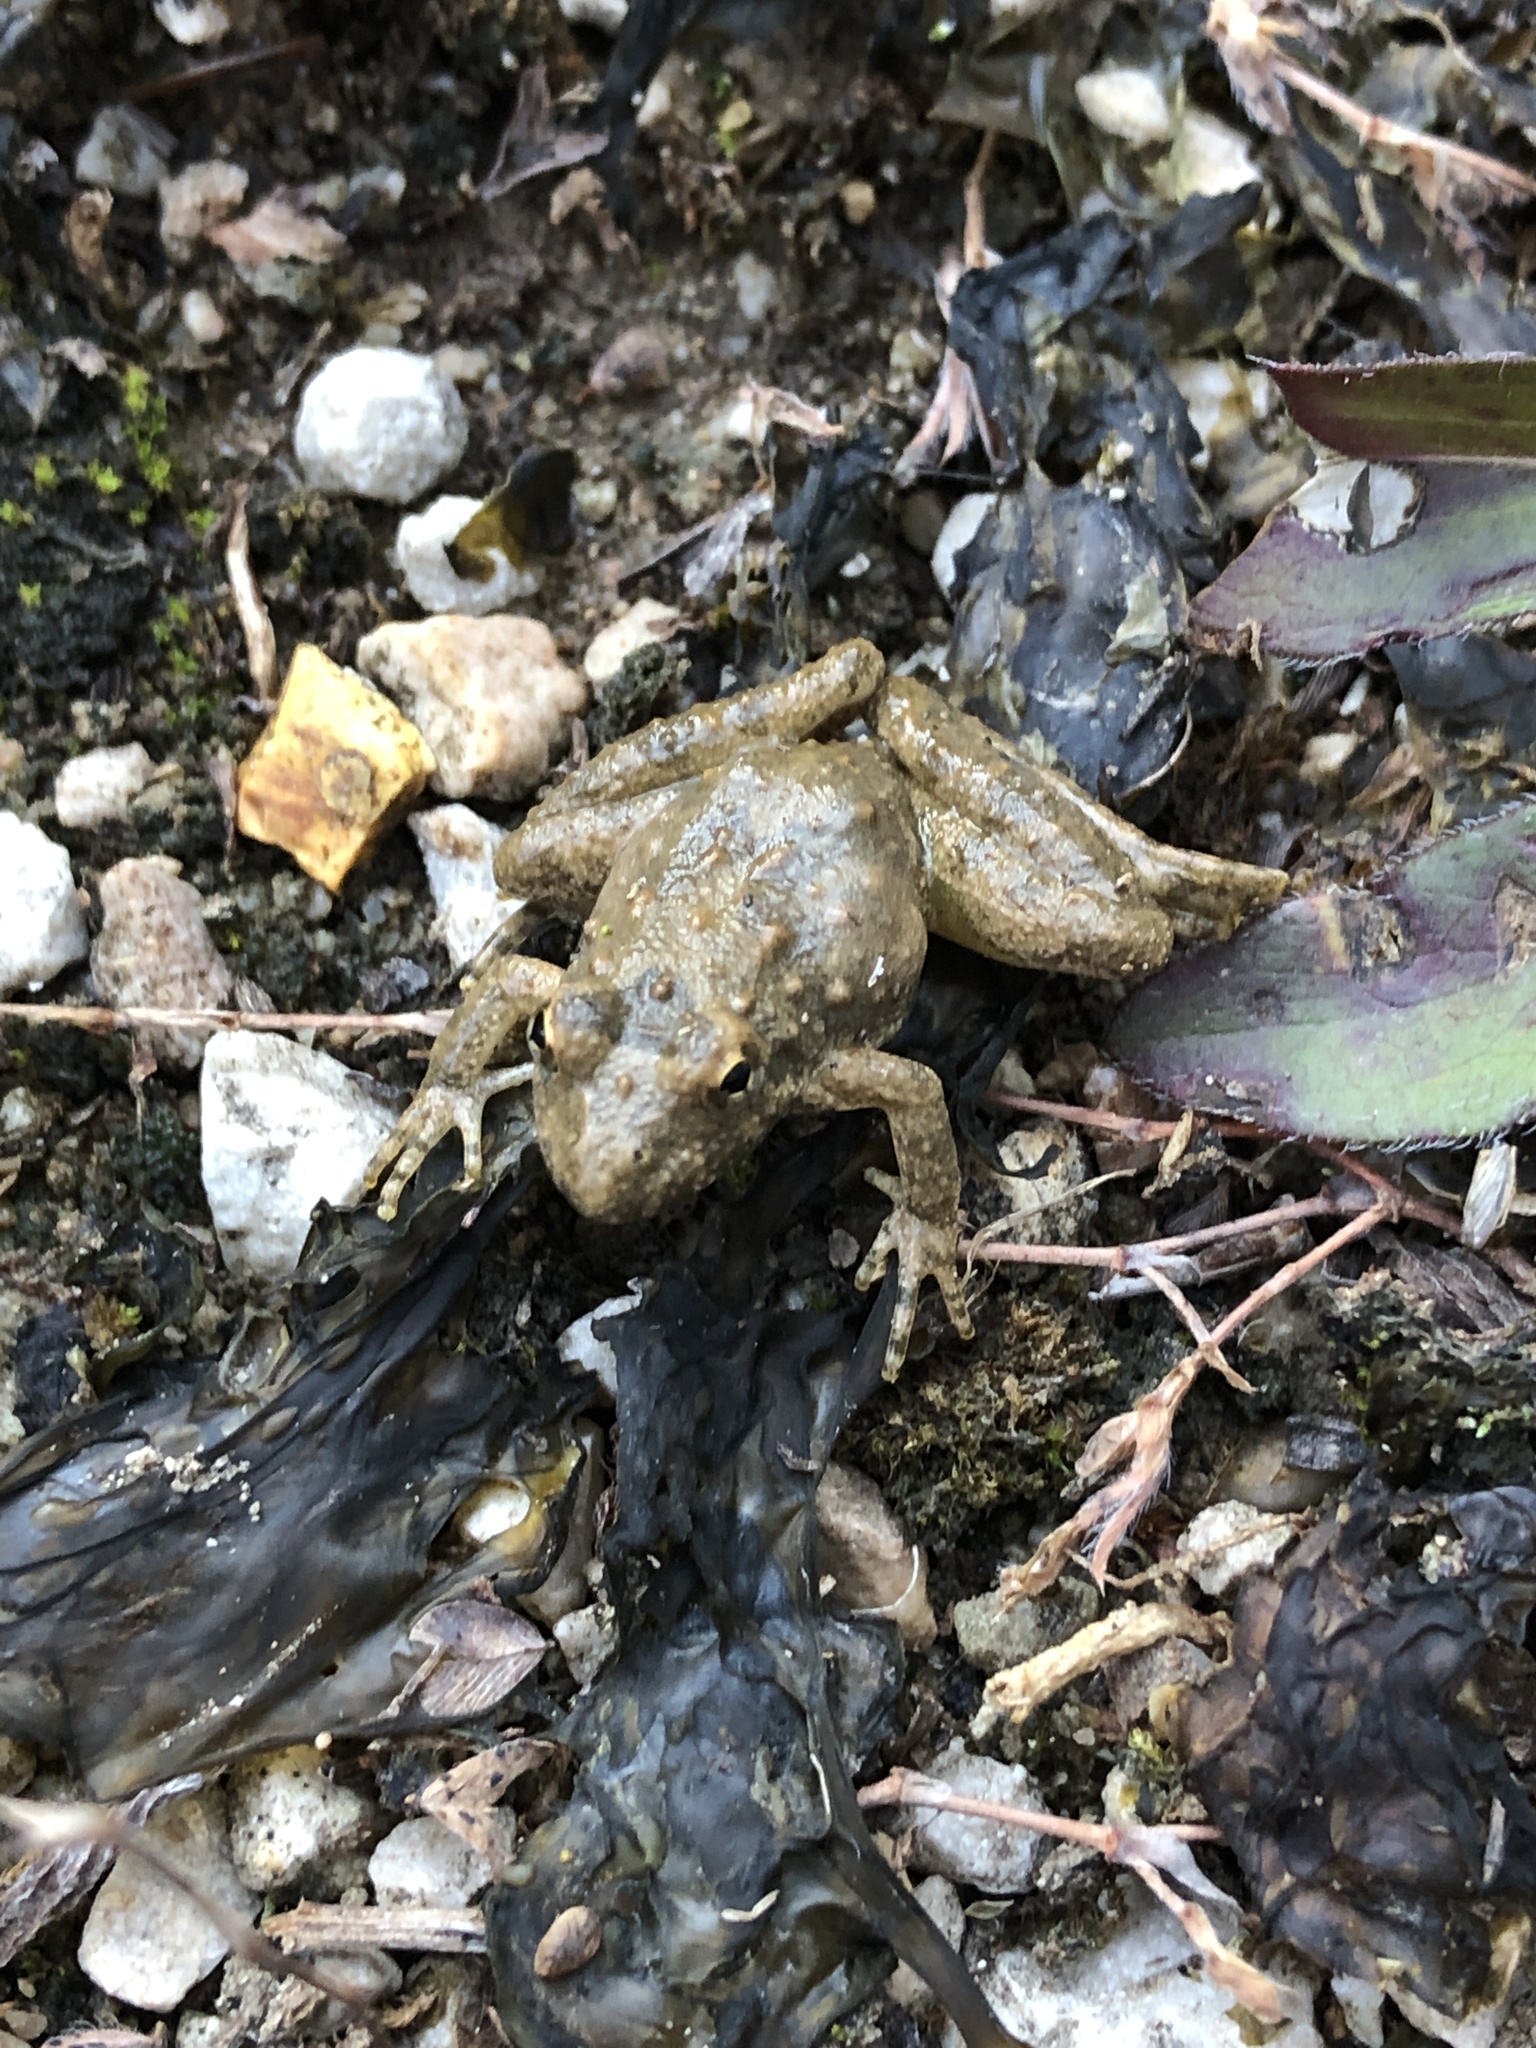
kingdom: Animalia
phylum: Chordata
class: Amphibia
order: Anura
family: Hylidae
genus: Acris
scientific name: Acris blanchardi
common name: Blanchard's cricket frog
